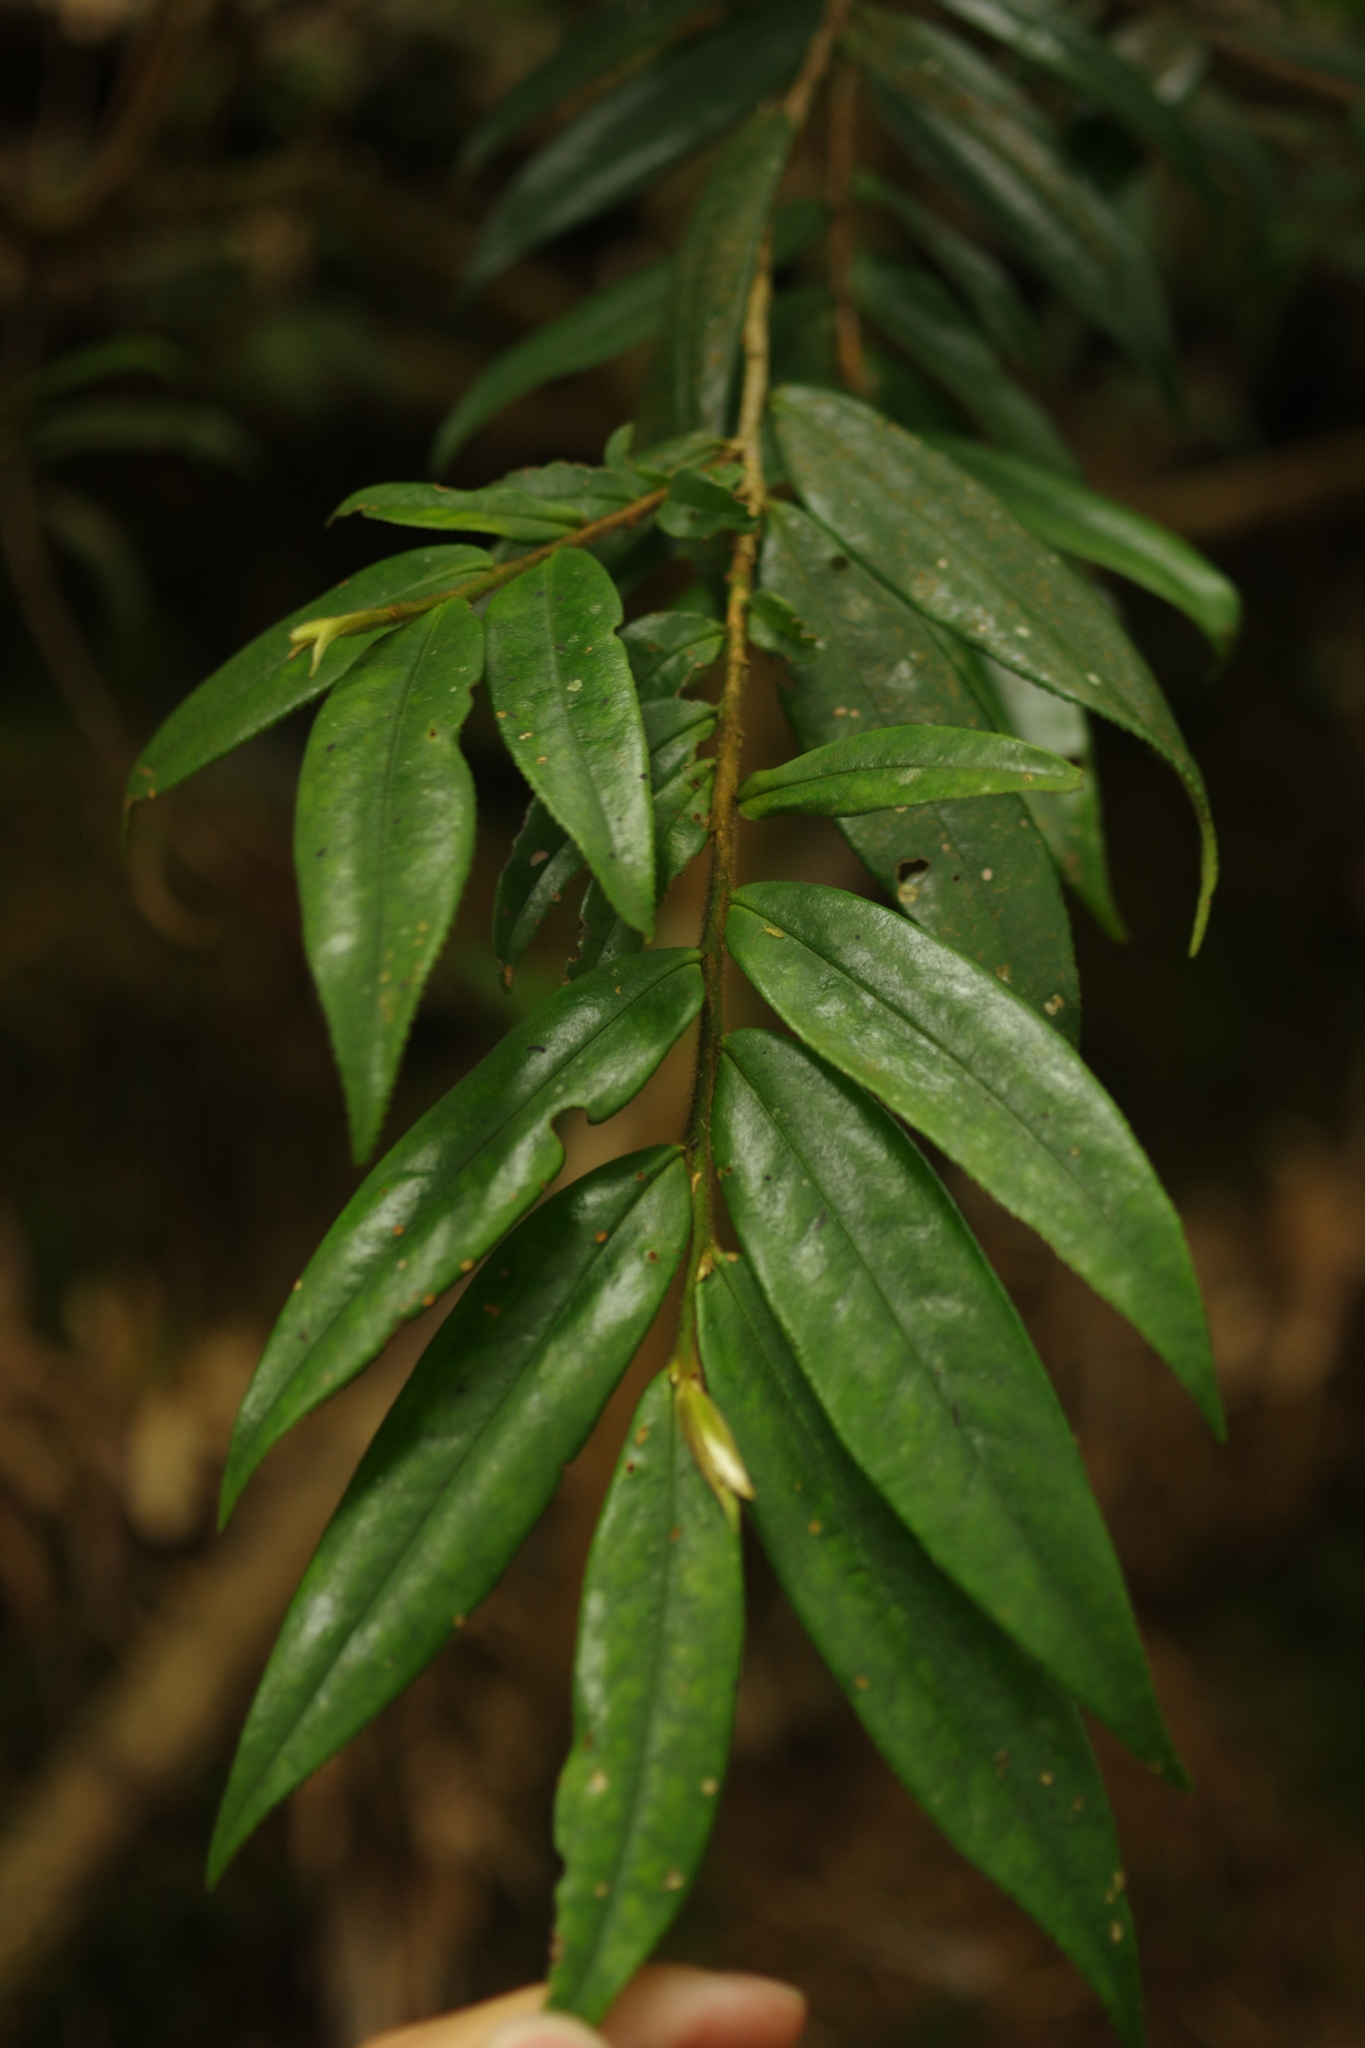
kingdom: Plantae
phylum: Tracheophyta
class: Magnoliopsida
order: Ericales
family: Pentaphylacaceae
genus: Eurya
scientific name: Eurya strigillosa
